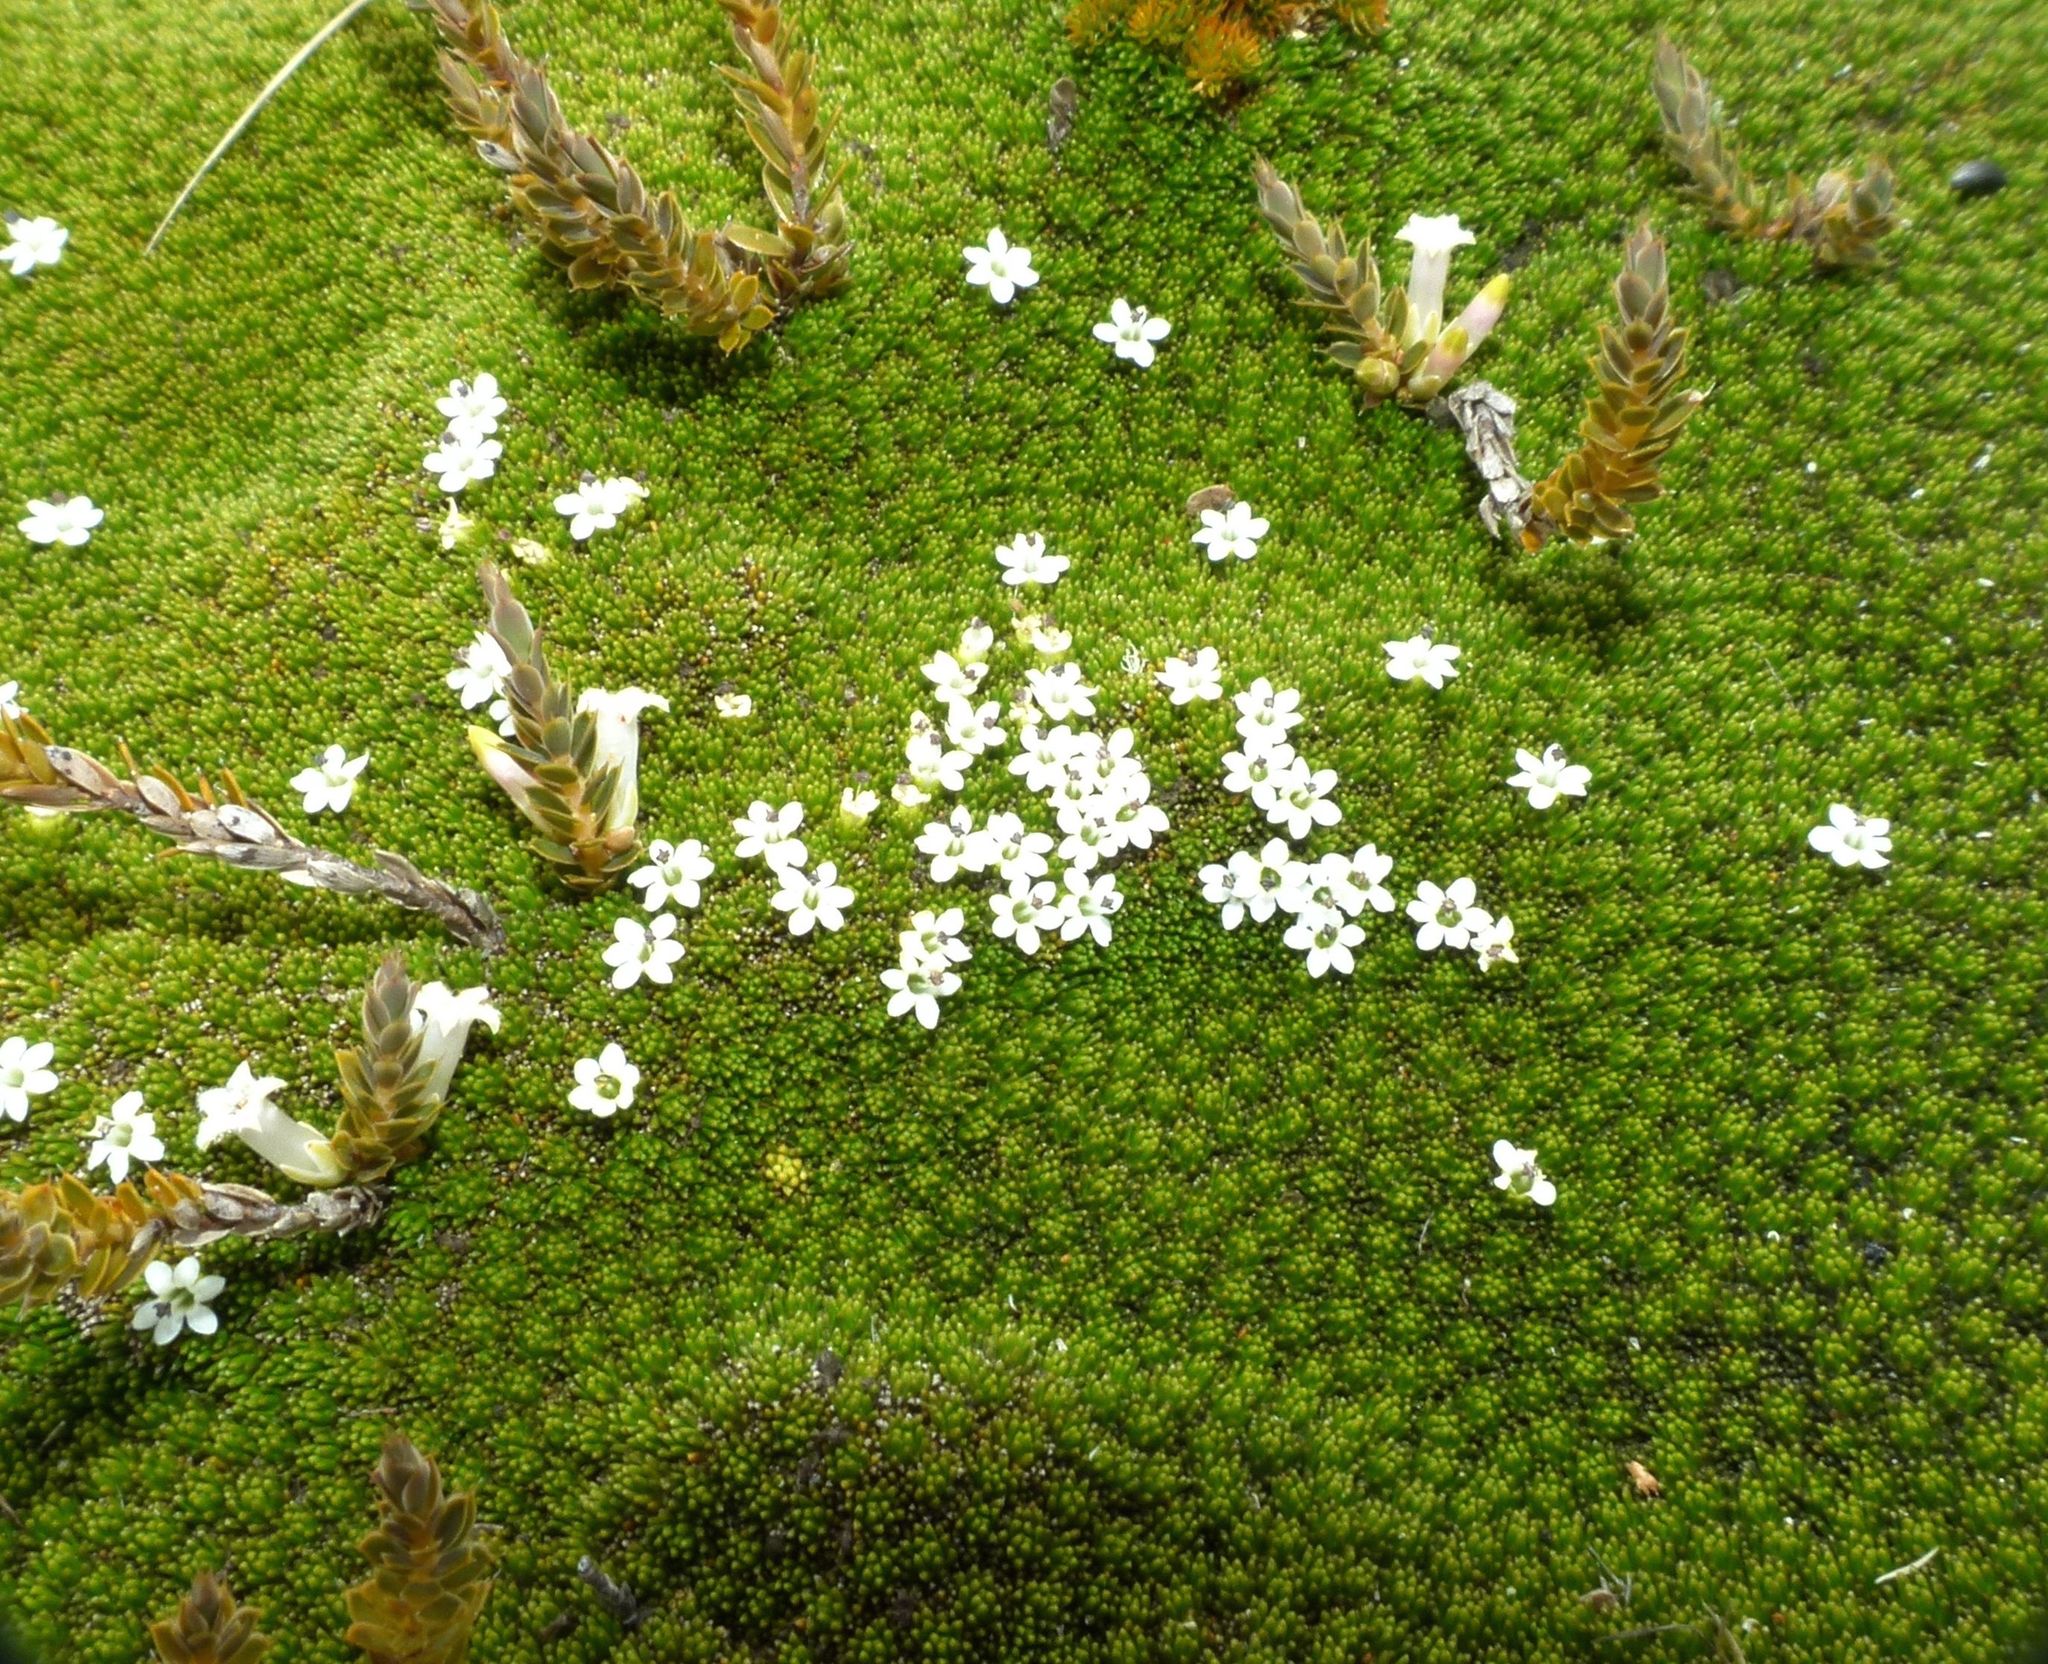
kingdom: Plantae
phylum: Tracheophyta
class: Magnoliopsida
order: Asterales
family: Stylidiaceae
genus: Phyllachne
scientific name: Phyllachne colensoi
